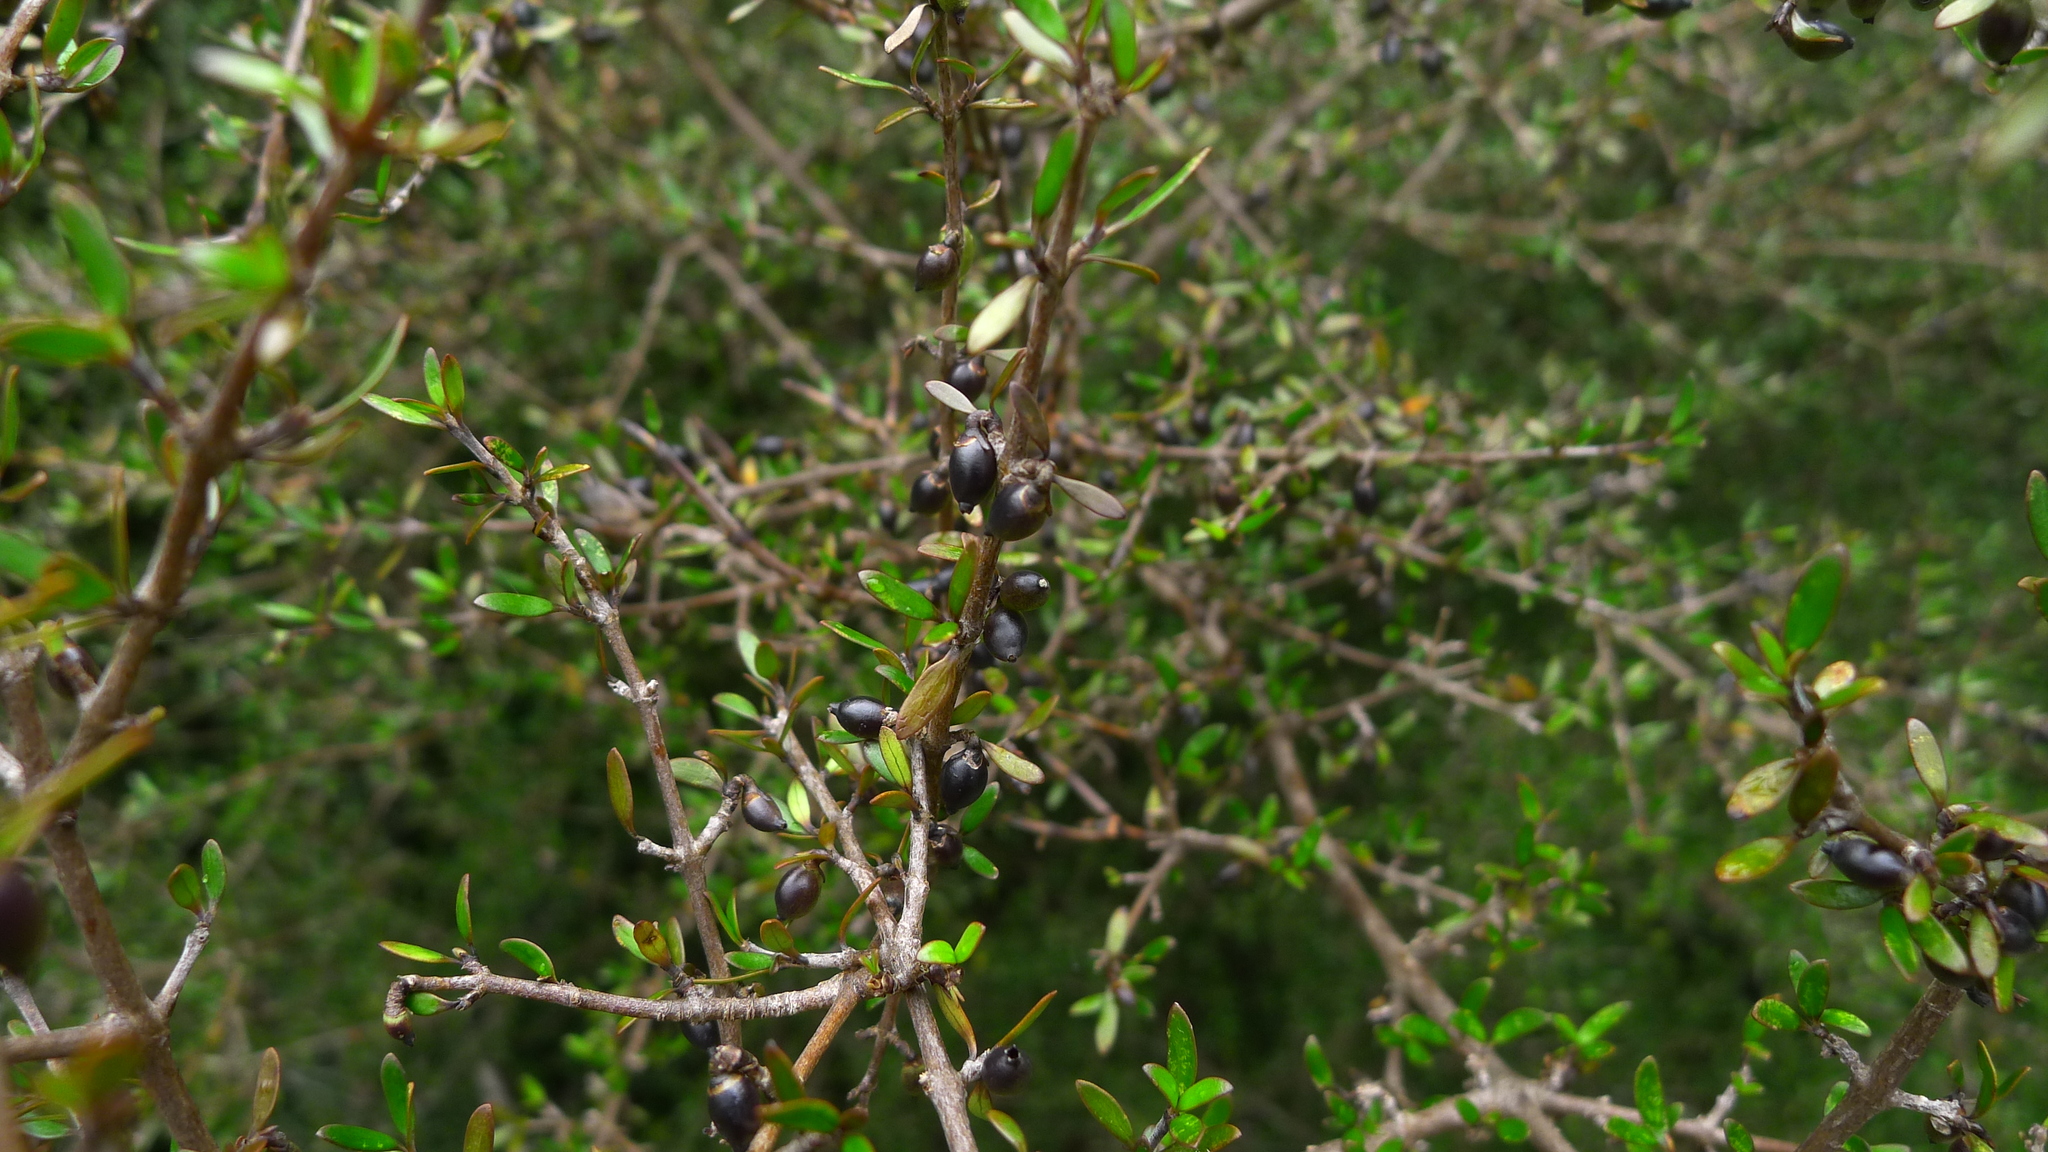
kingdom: Plantae
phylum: Tracheophyta
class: Magnoliopsida
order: Gentianales
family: Rubiaceae
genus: Coprosma
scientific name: Coprosma propinqua
